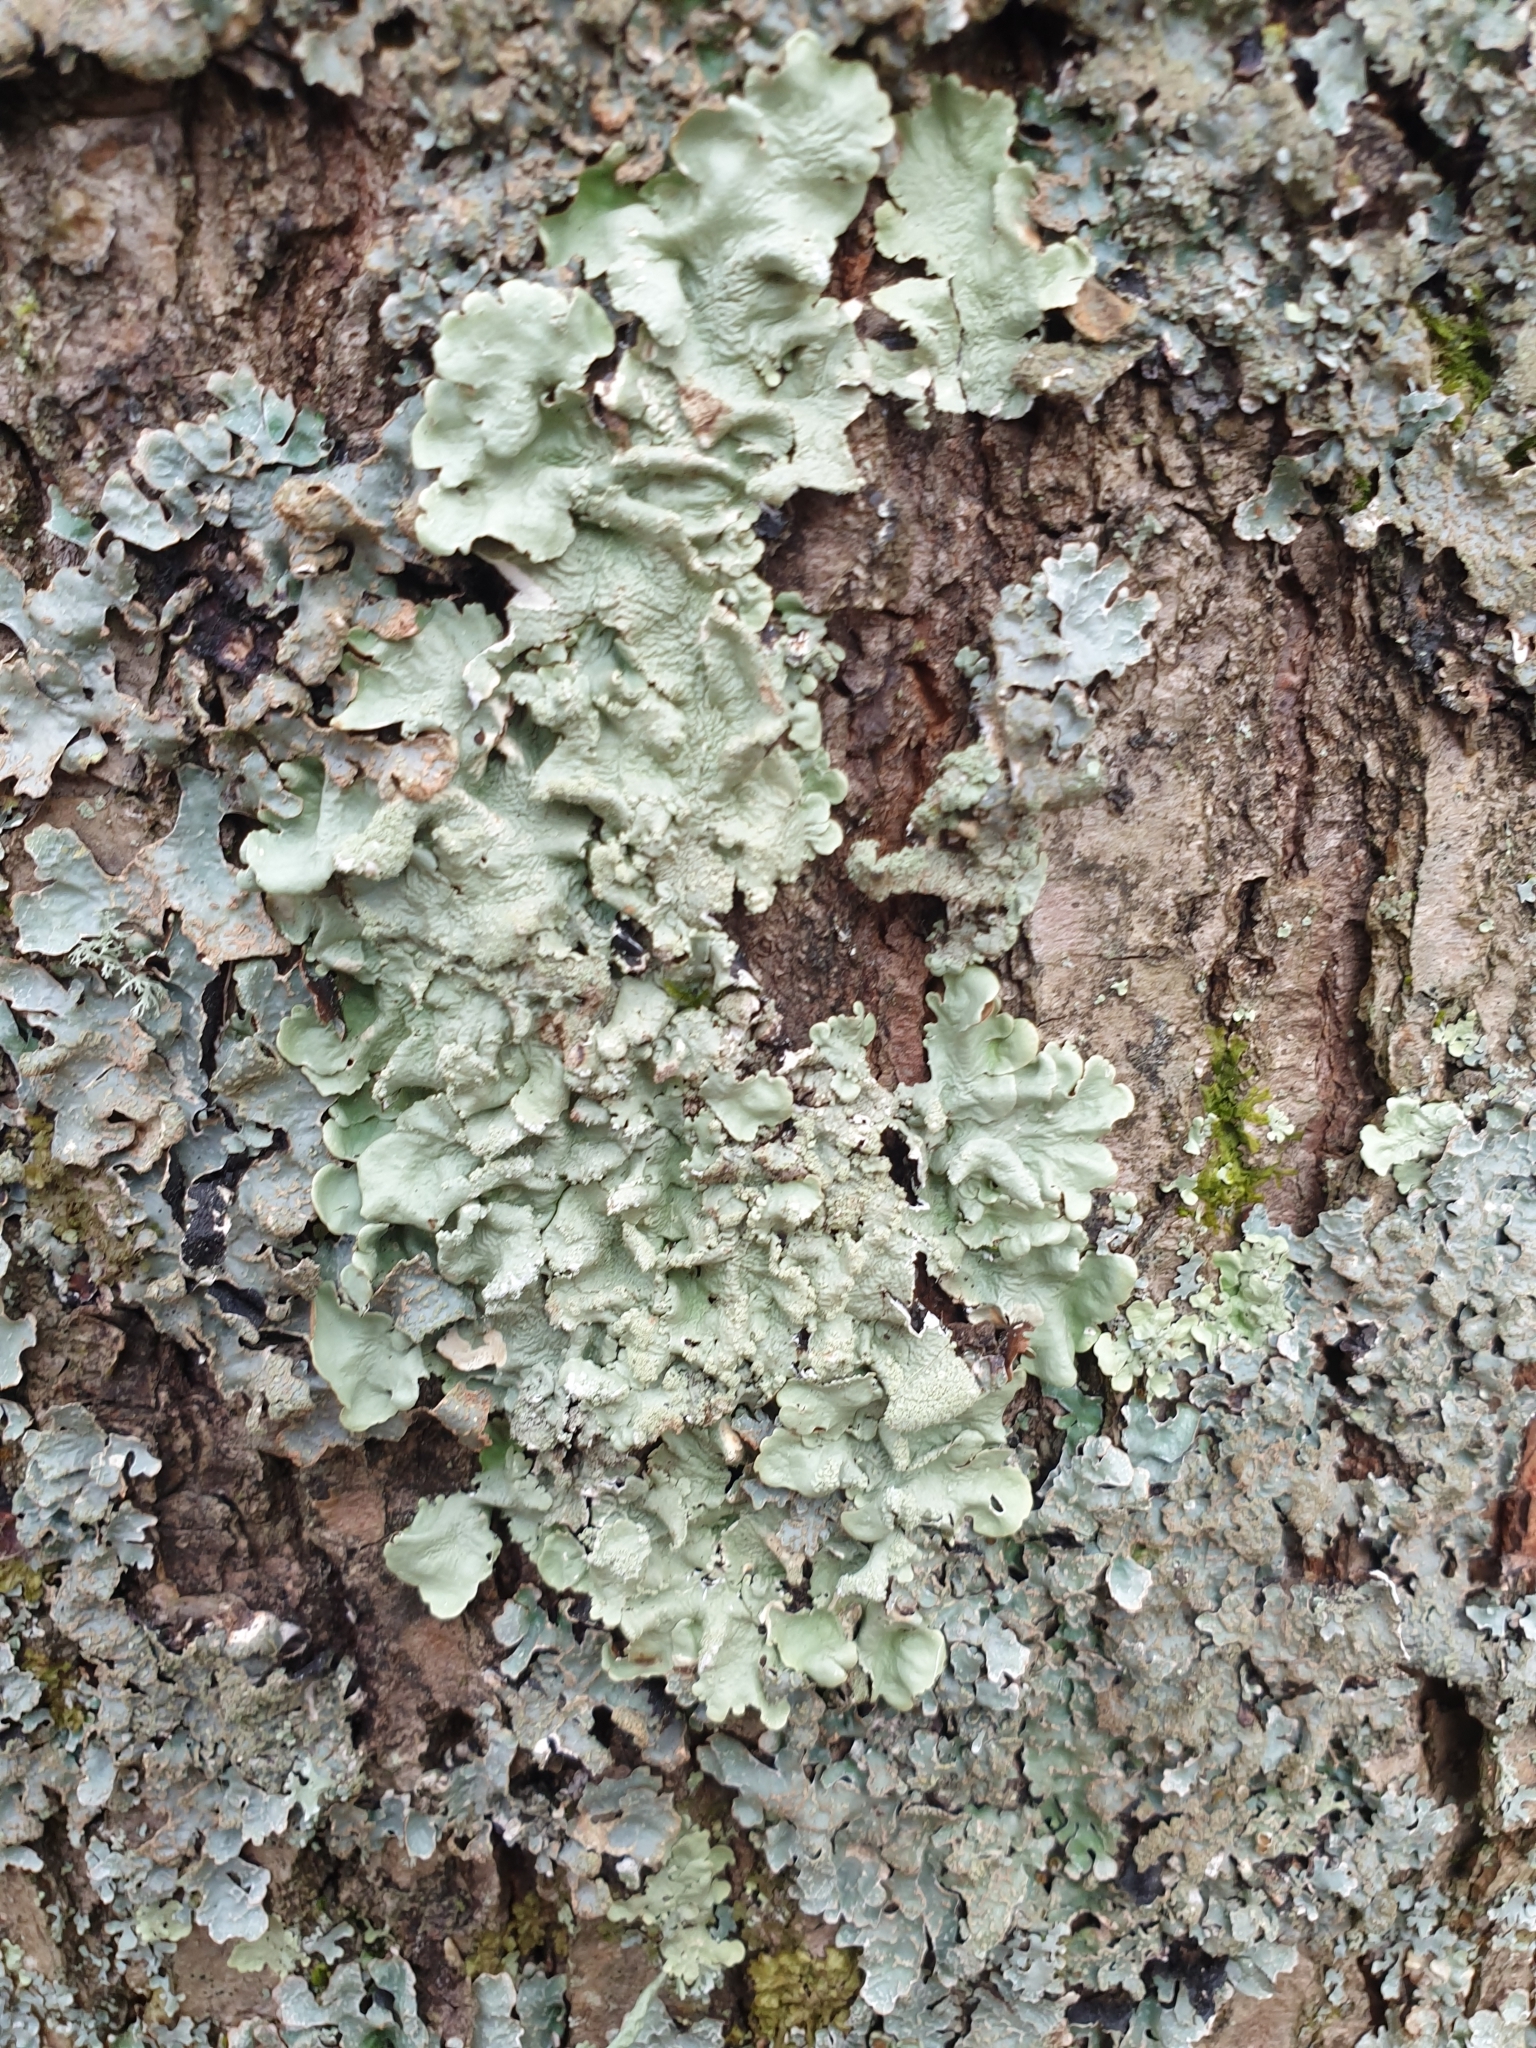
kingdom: Fungi
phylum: Ascomycota
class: Lecanoromycetes
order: Lecanorales
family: Parmeliaceae
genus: Flavoparmelia
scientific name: Flavoparmelia caperata
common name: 40-mile per hour lichen
